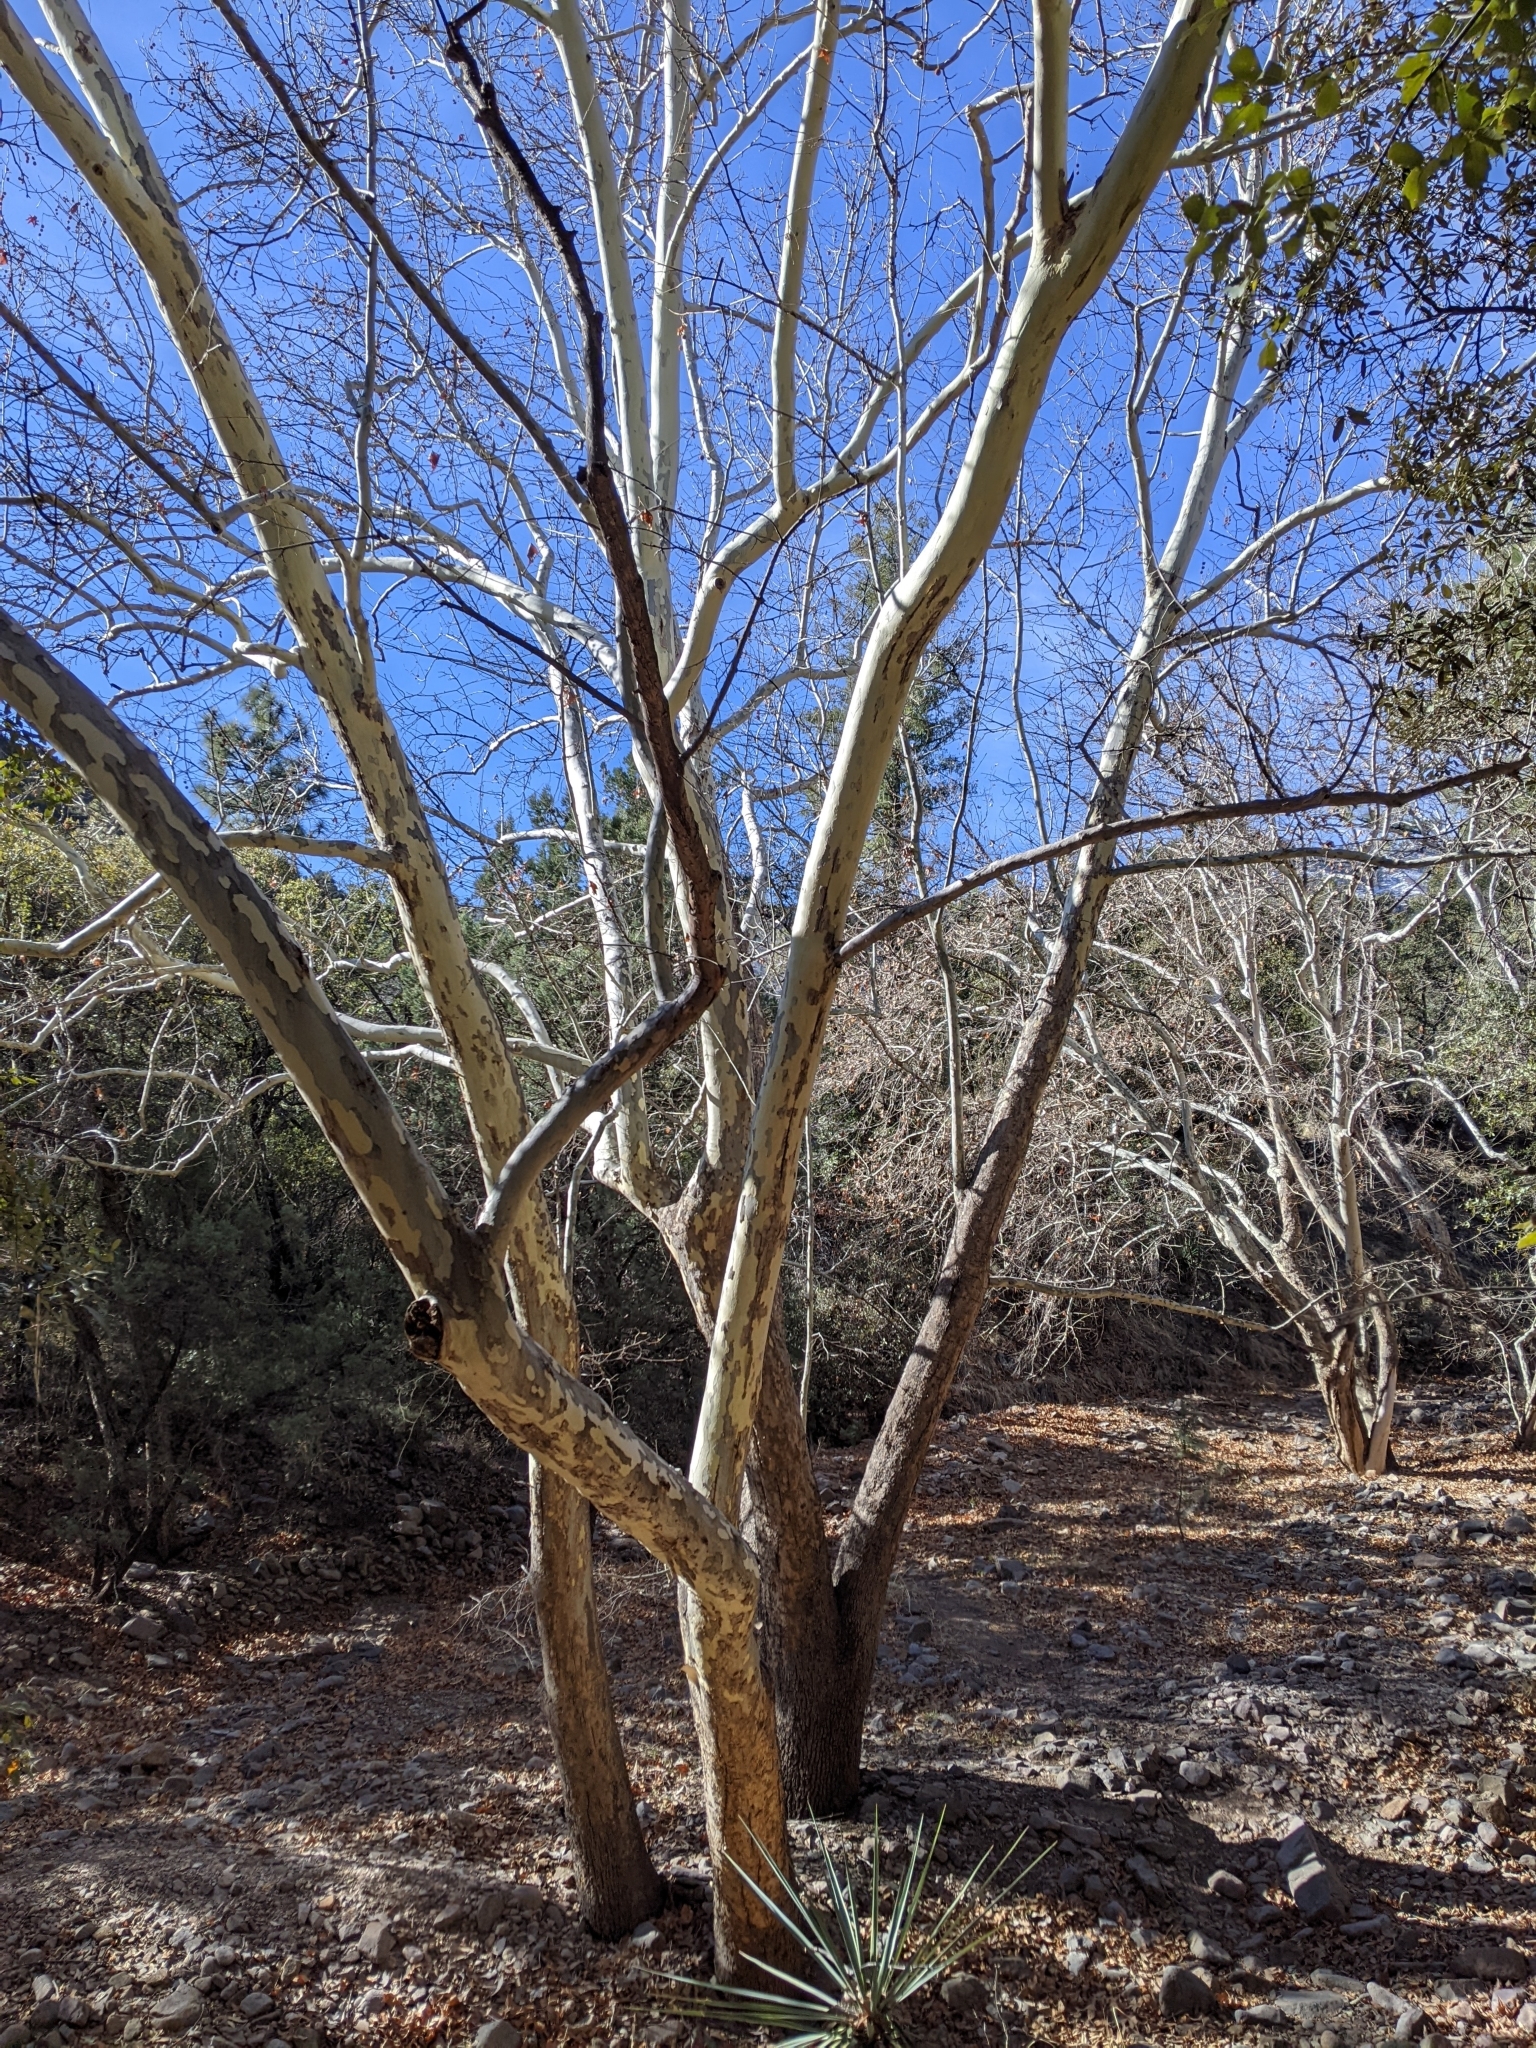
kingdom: Plantae
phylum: Tracheophyta
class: Magnoliopsida
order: Proteales
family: Platanaceae
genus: Platanus
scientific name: Platanus wrightii
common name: Arizona sycamore
